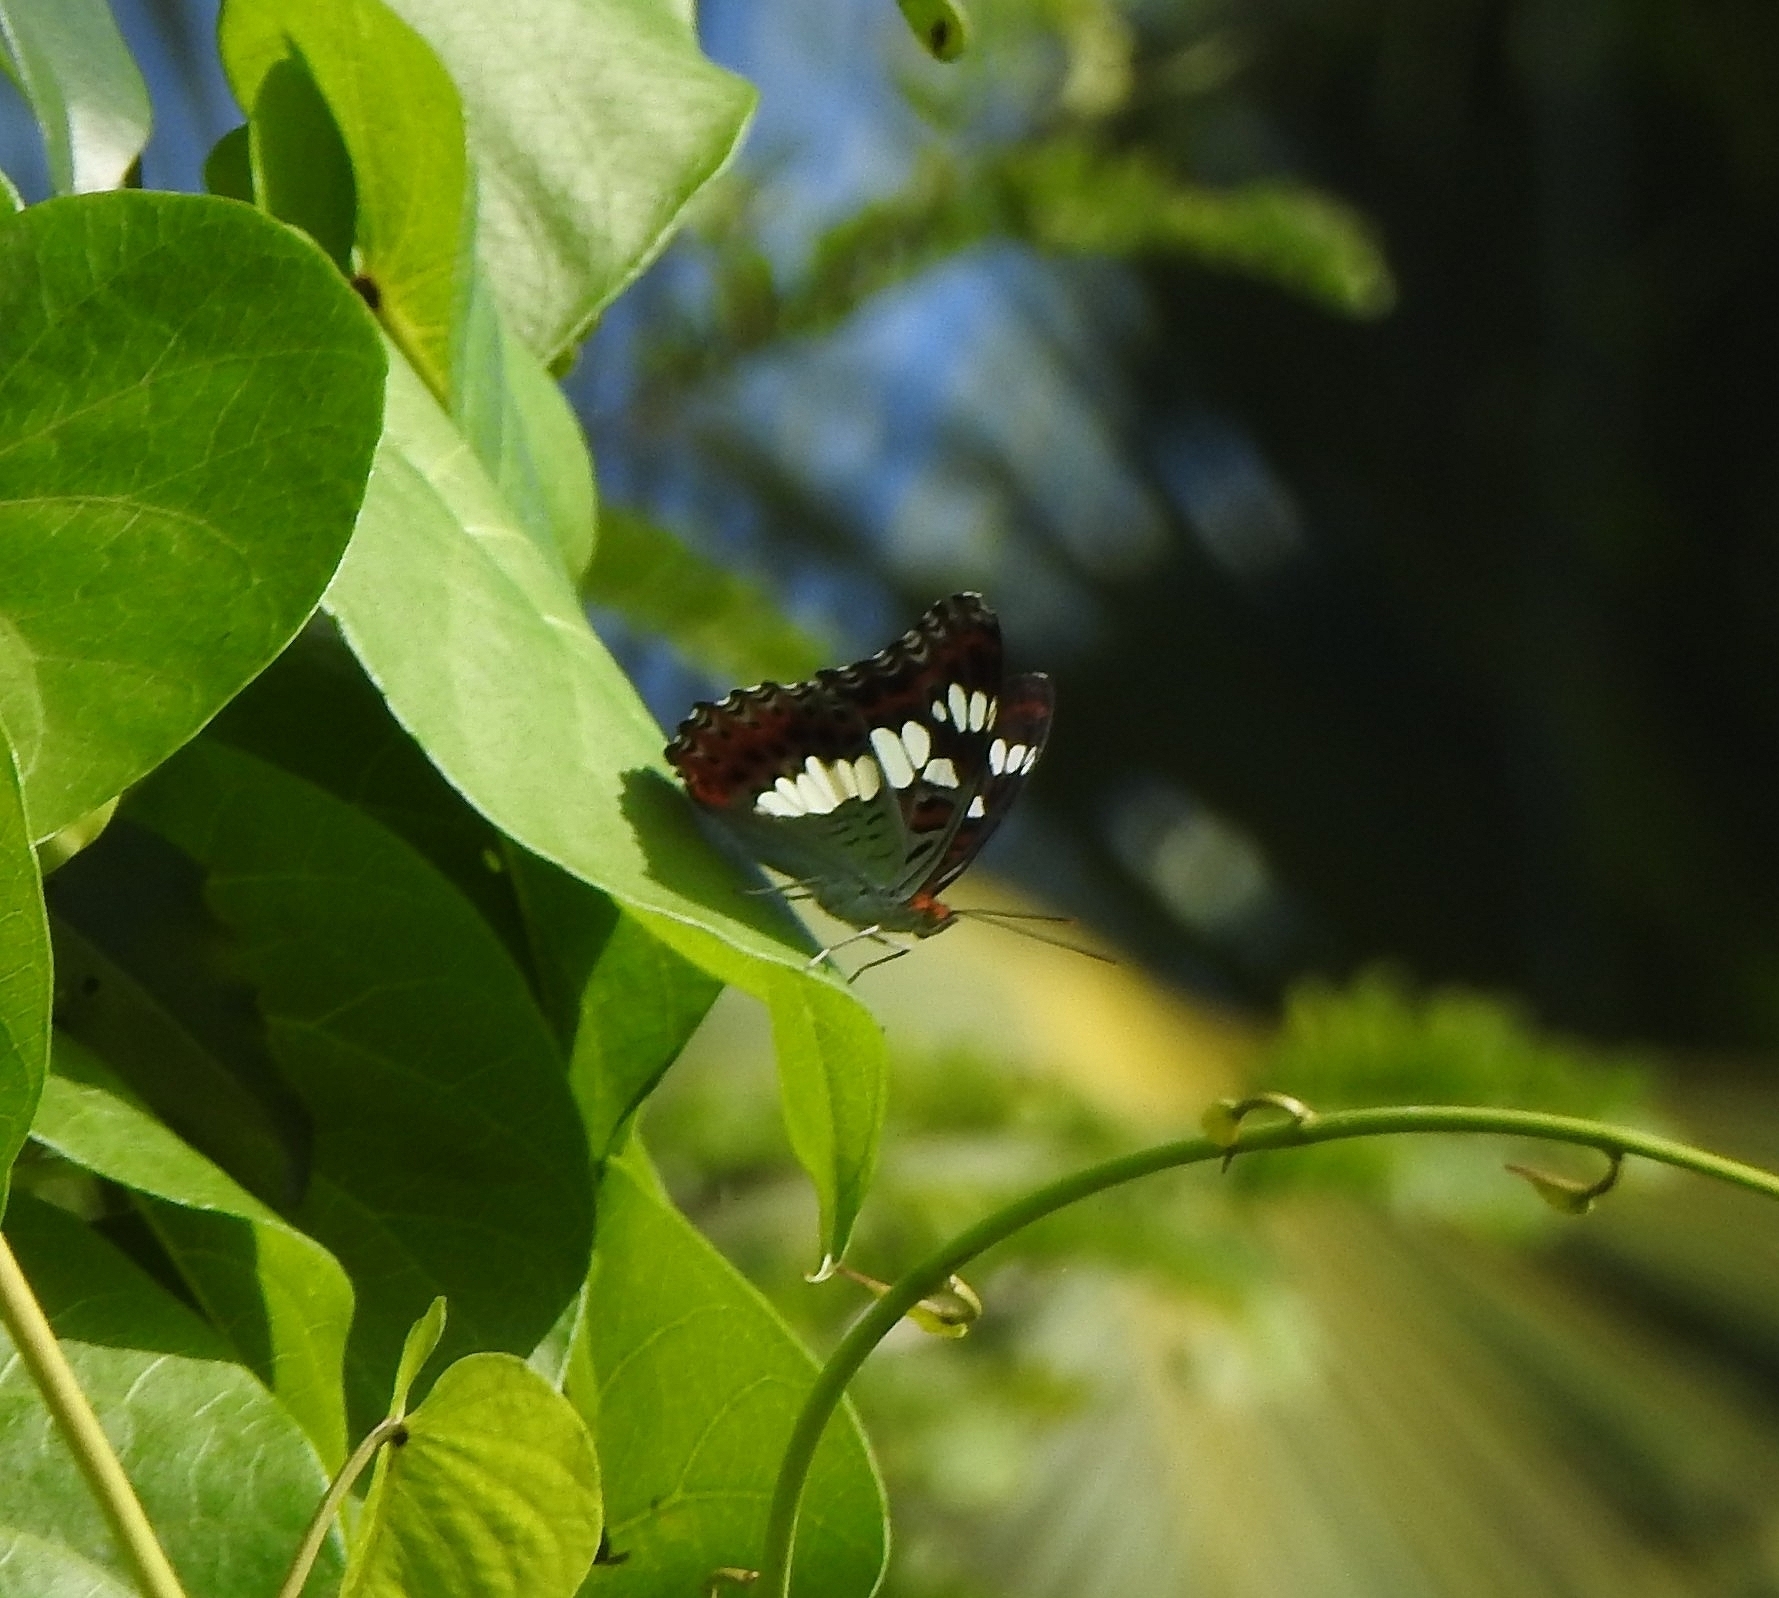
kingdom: Animalia
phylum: Arthropoda
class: Insecta
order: Lepidoptera
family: Nymphalidae
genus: Limenitis
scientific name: Limenitis Moduza procris
